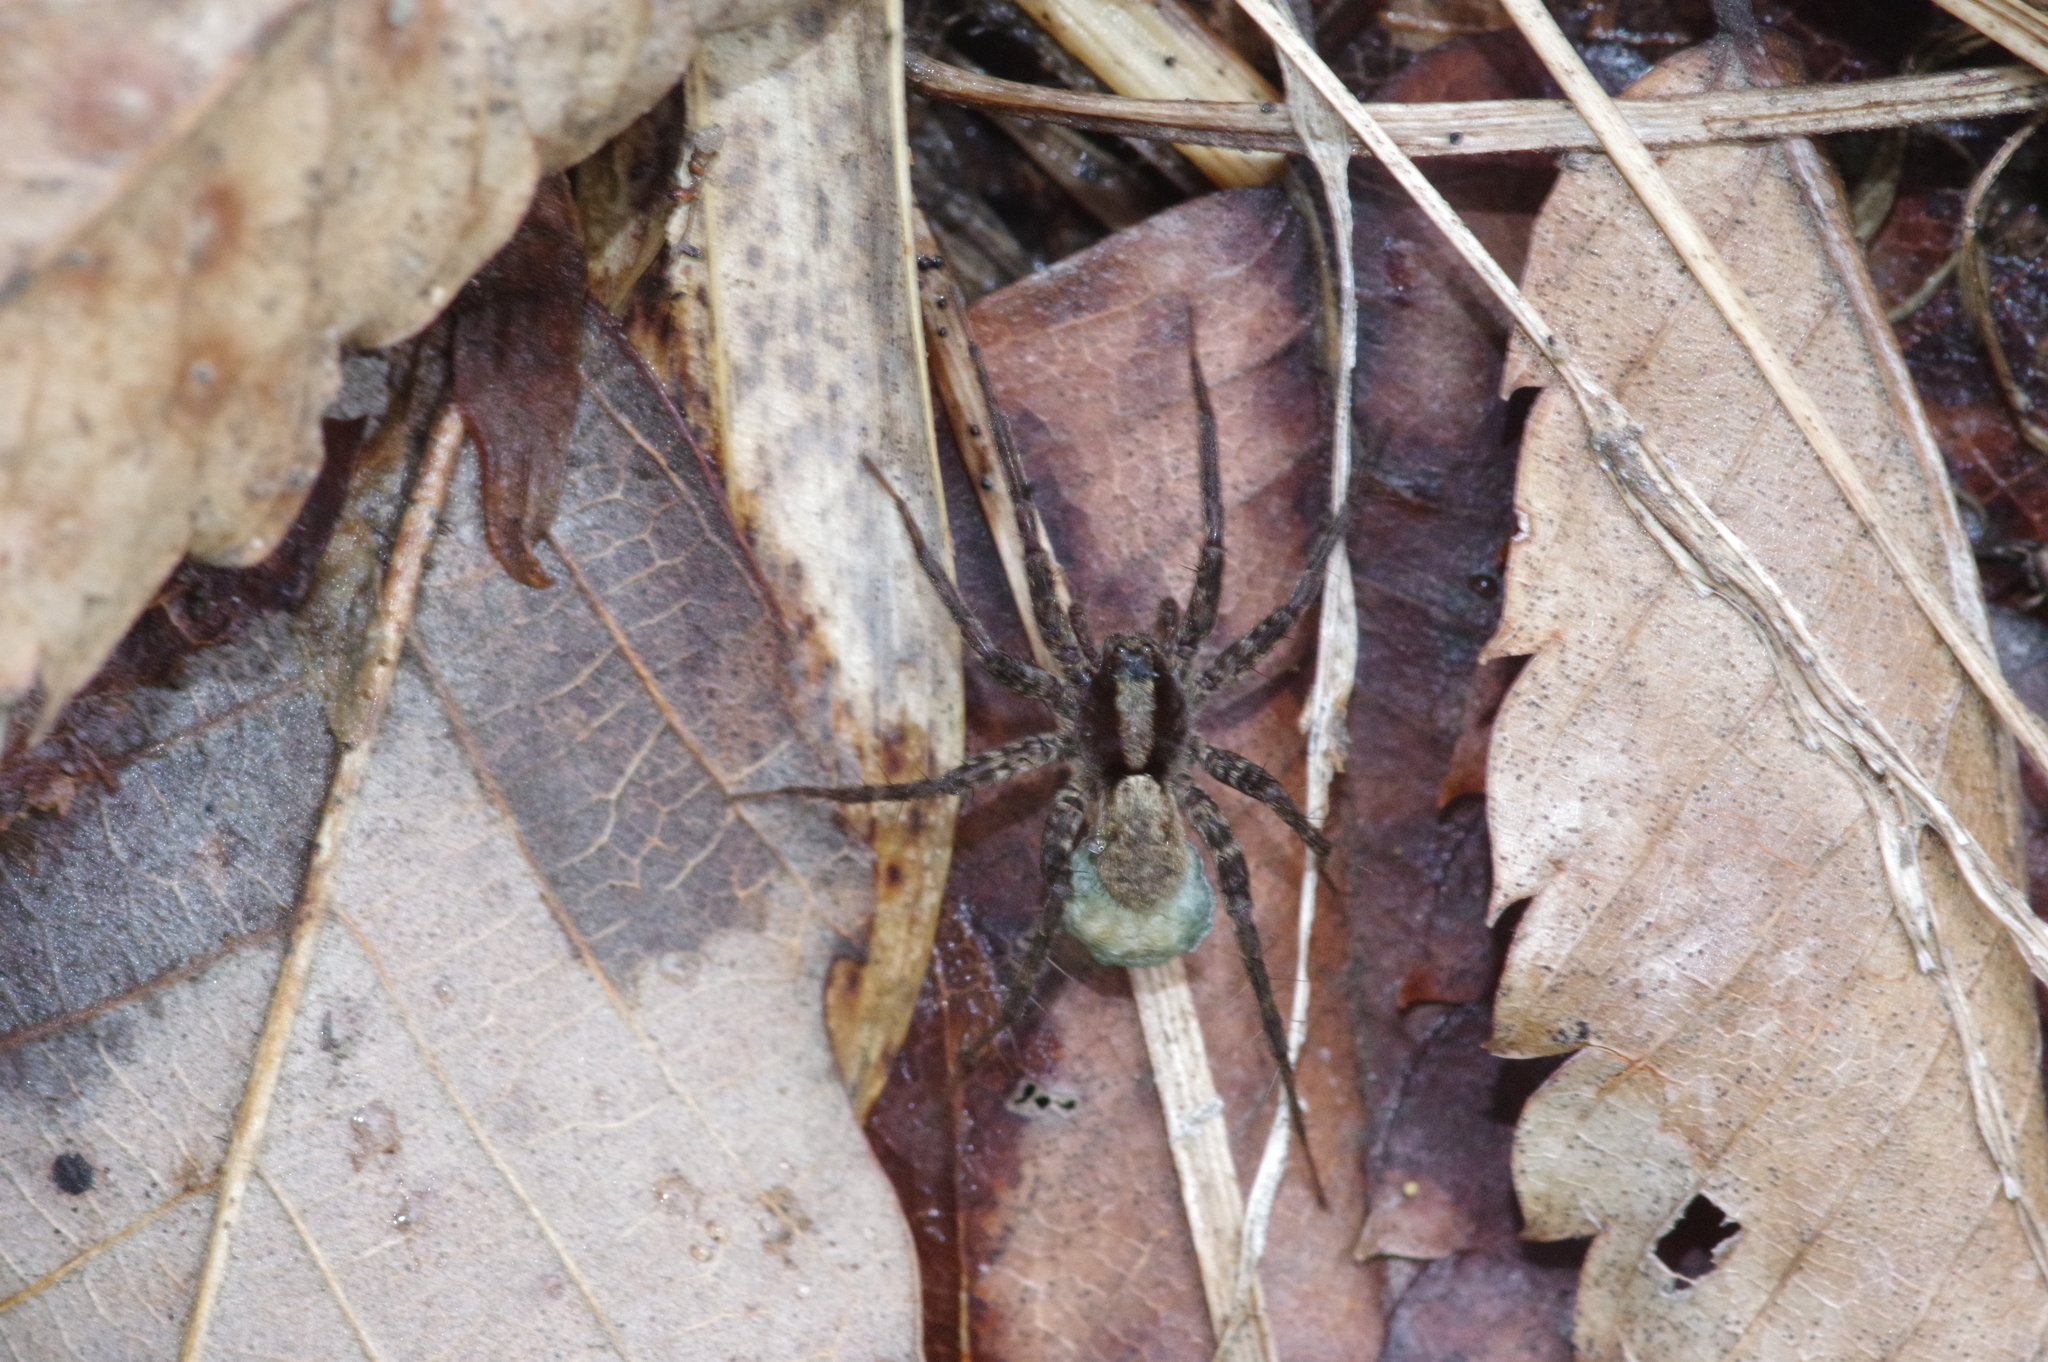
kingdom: Animalia
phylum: Arthropoda
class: Arachnida
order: Araneae
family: Lycosidae
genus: Pardosa
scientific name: Pardosa astrigera
